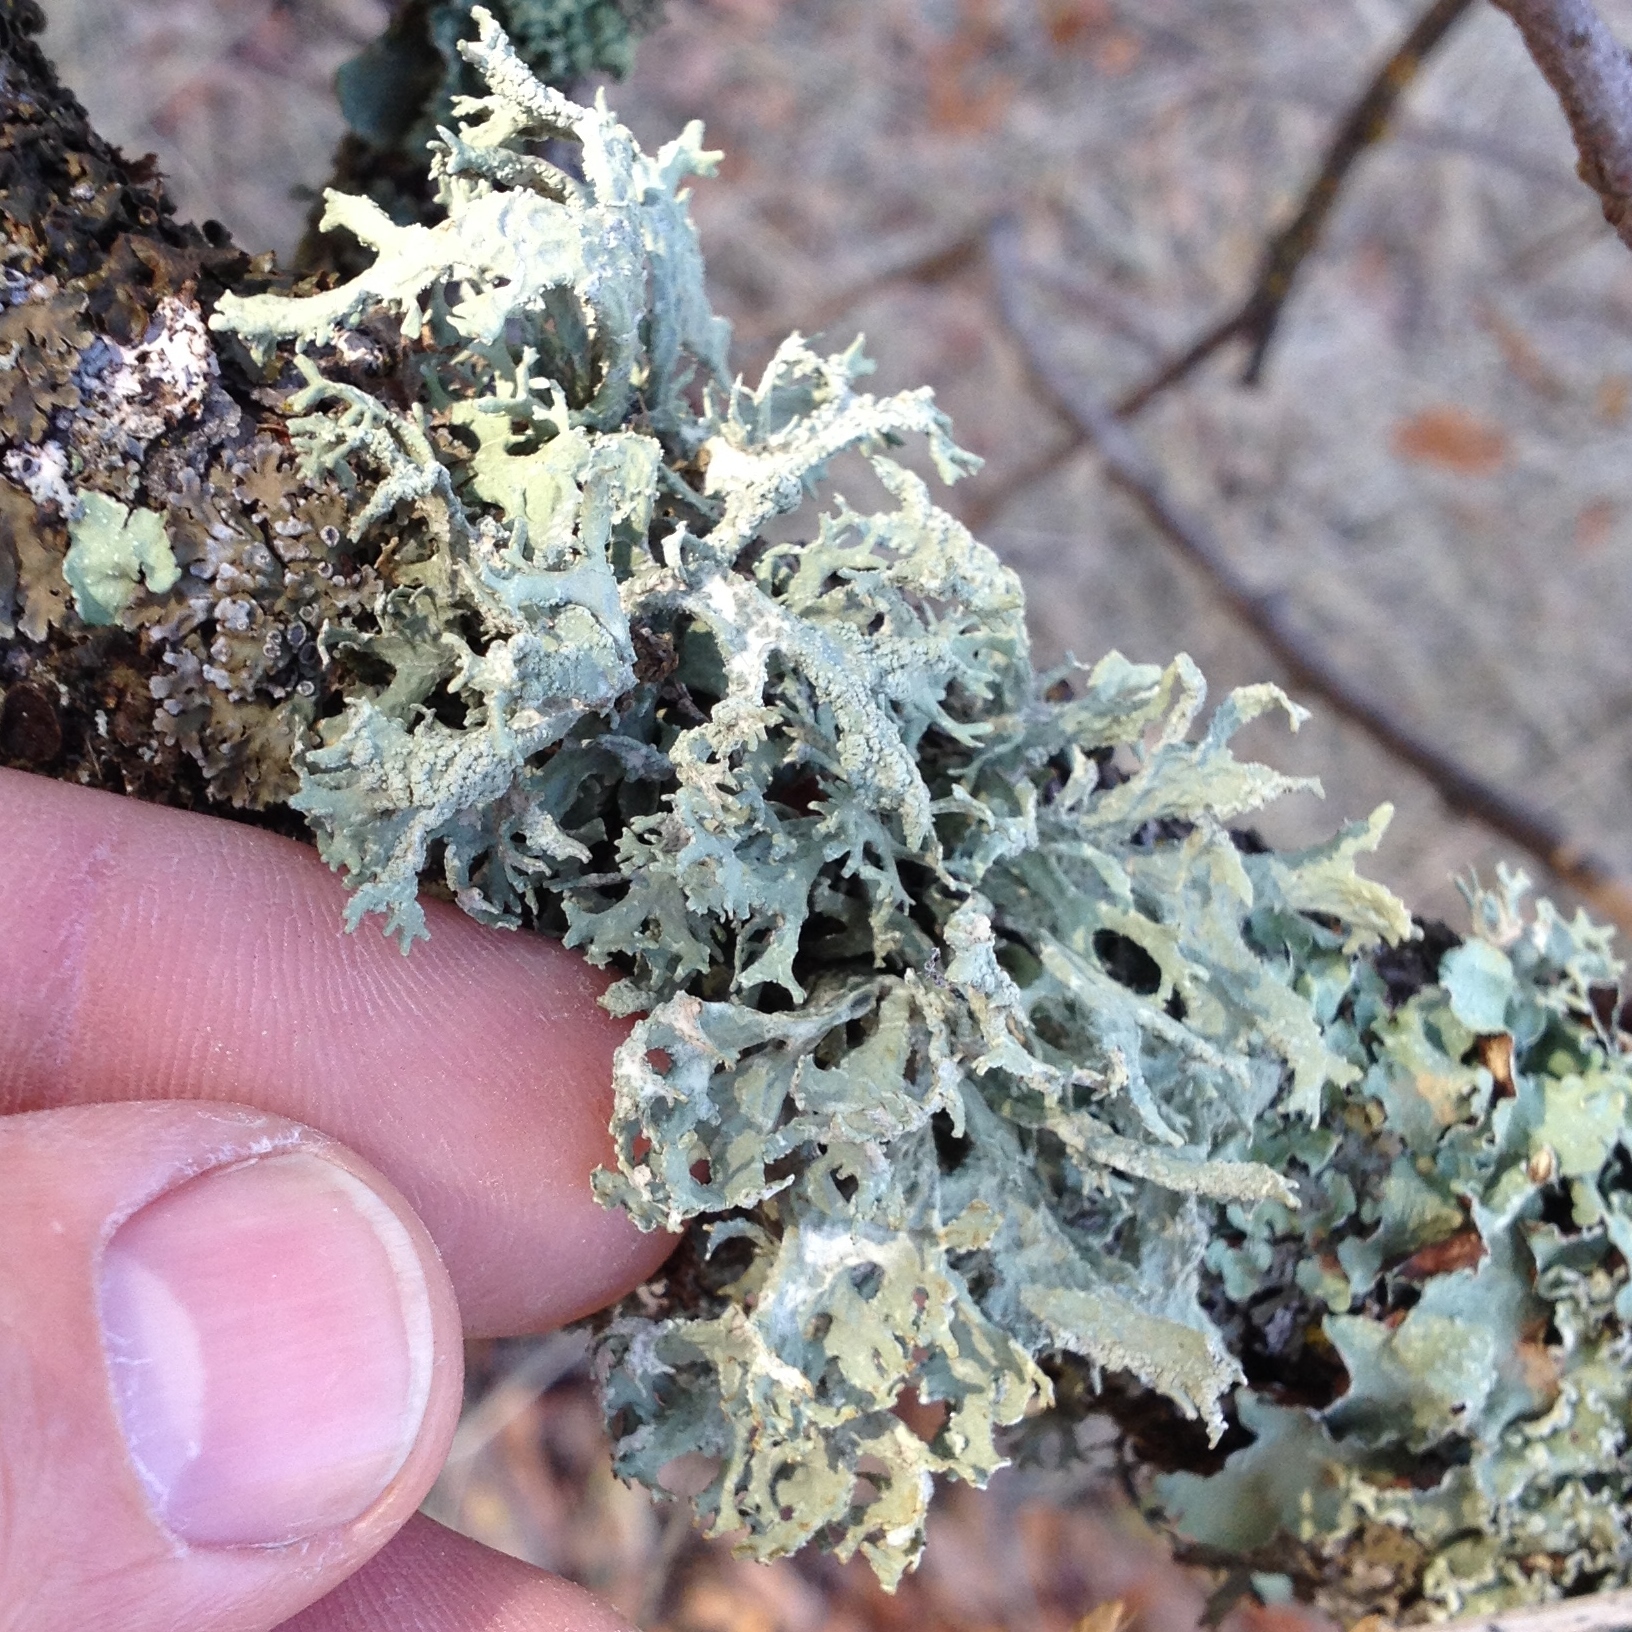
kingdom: Fungi
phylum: Ascomycota
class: Lecanoromycetes
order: Lecanorales
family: Parmeliaceae
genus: Evernia
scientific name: Evernia prunastri
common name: Oak moss
